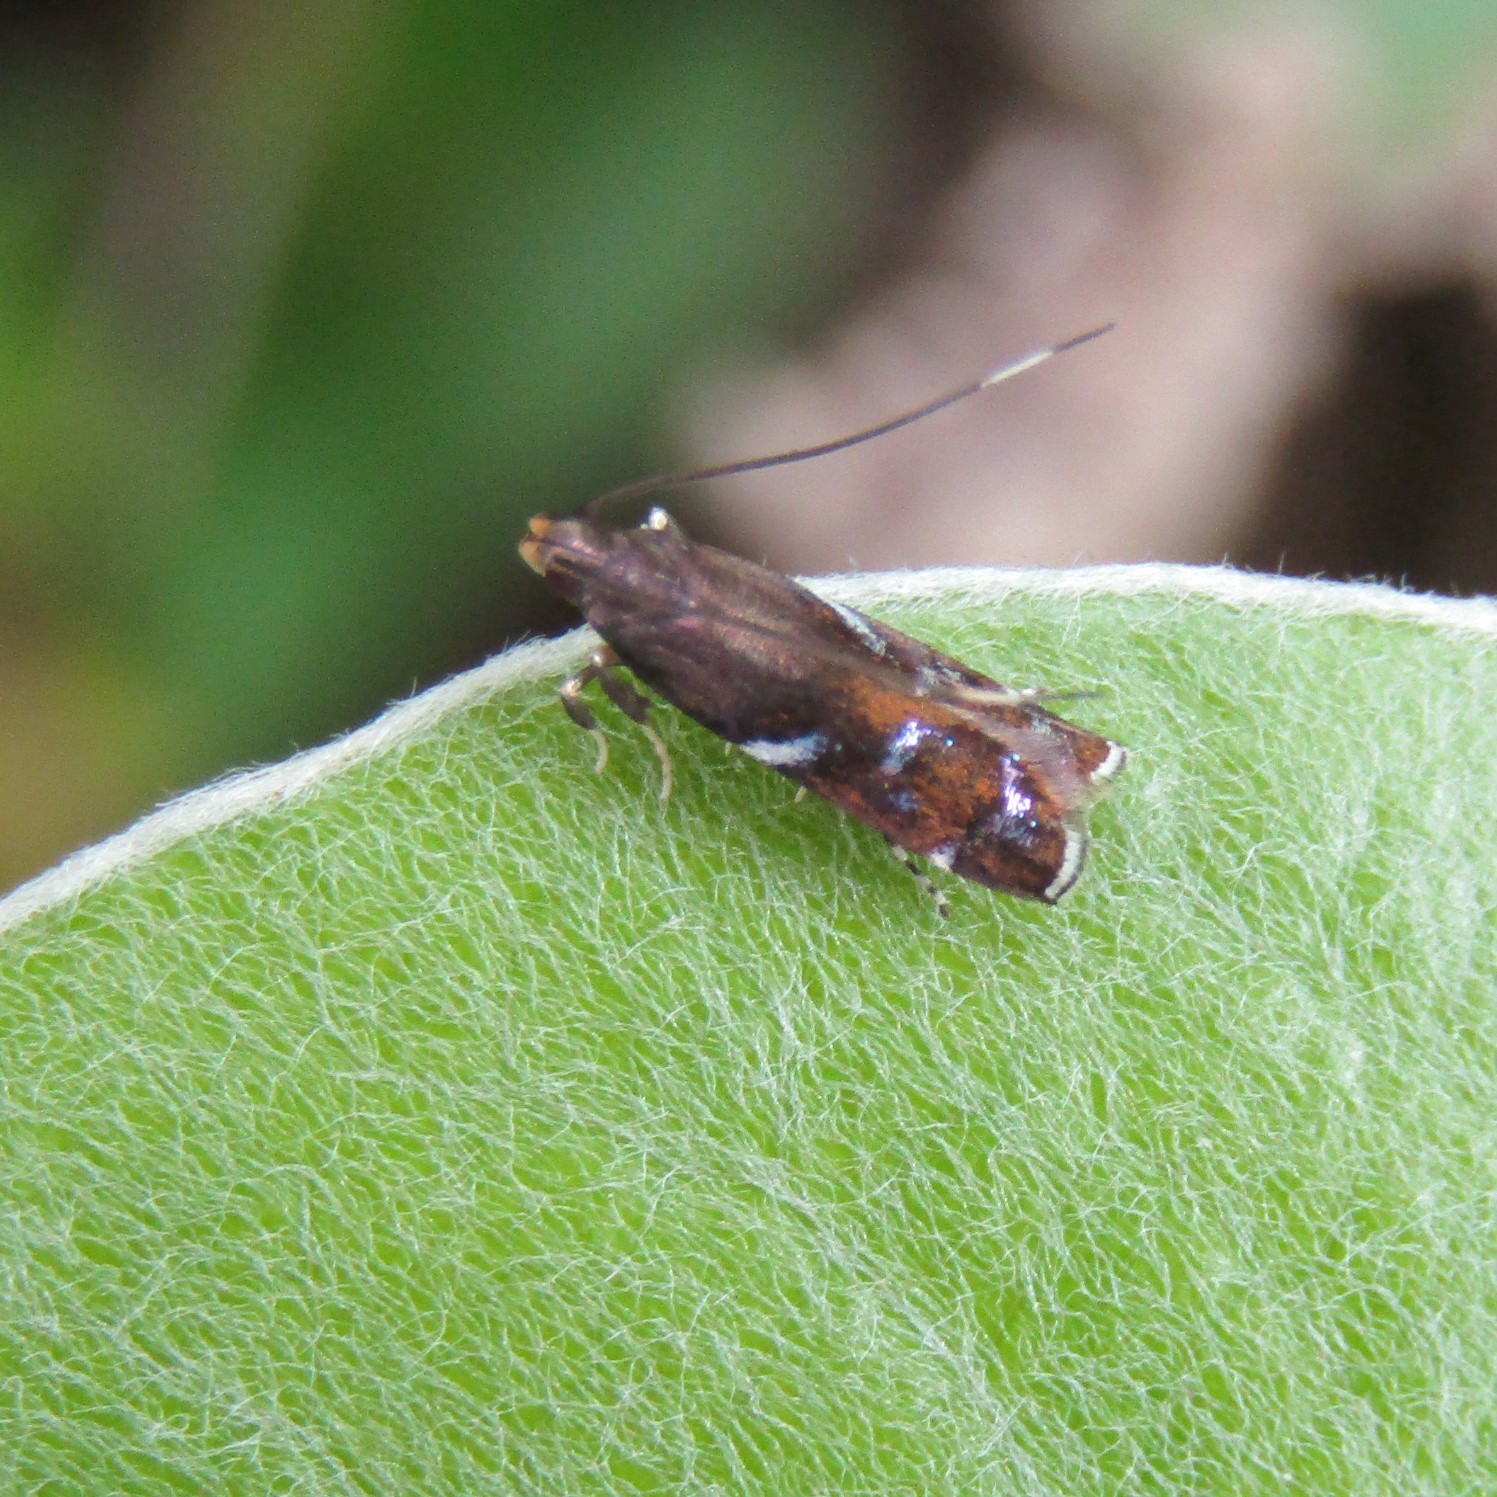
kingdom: Animalia
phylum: Arthropoda
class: Insecta
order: Lepidoptera
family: Depressariidae
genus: Compsistis
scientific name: Compsistis bifaciella
